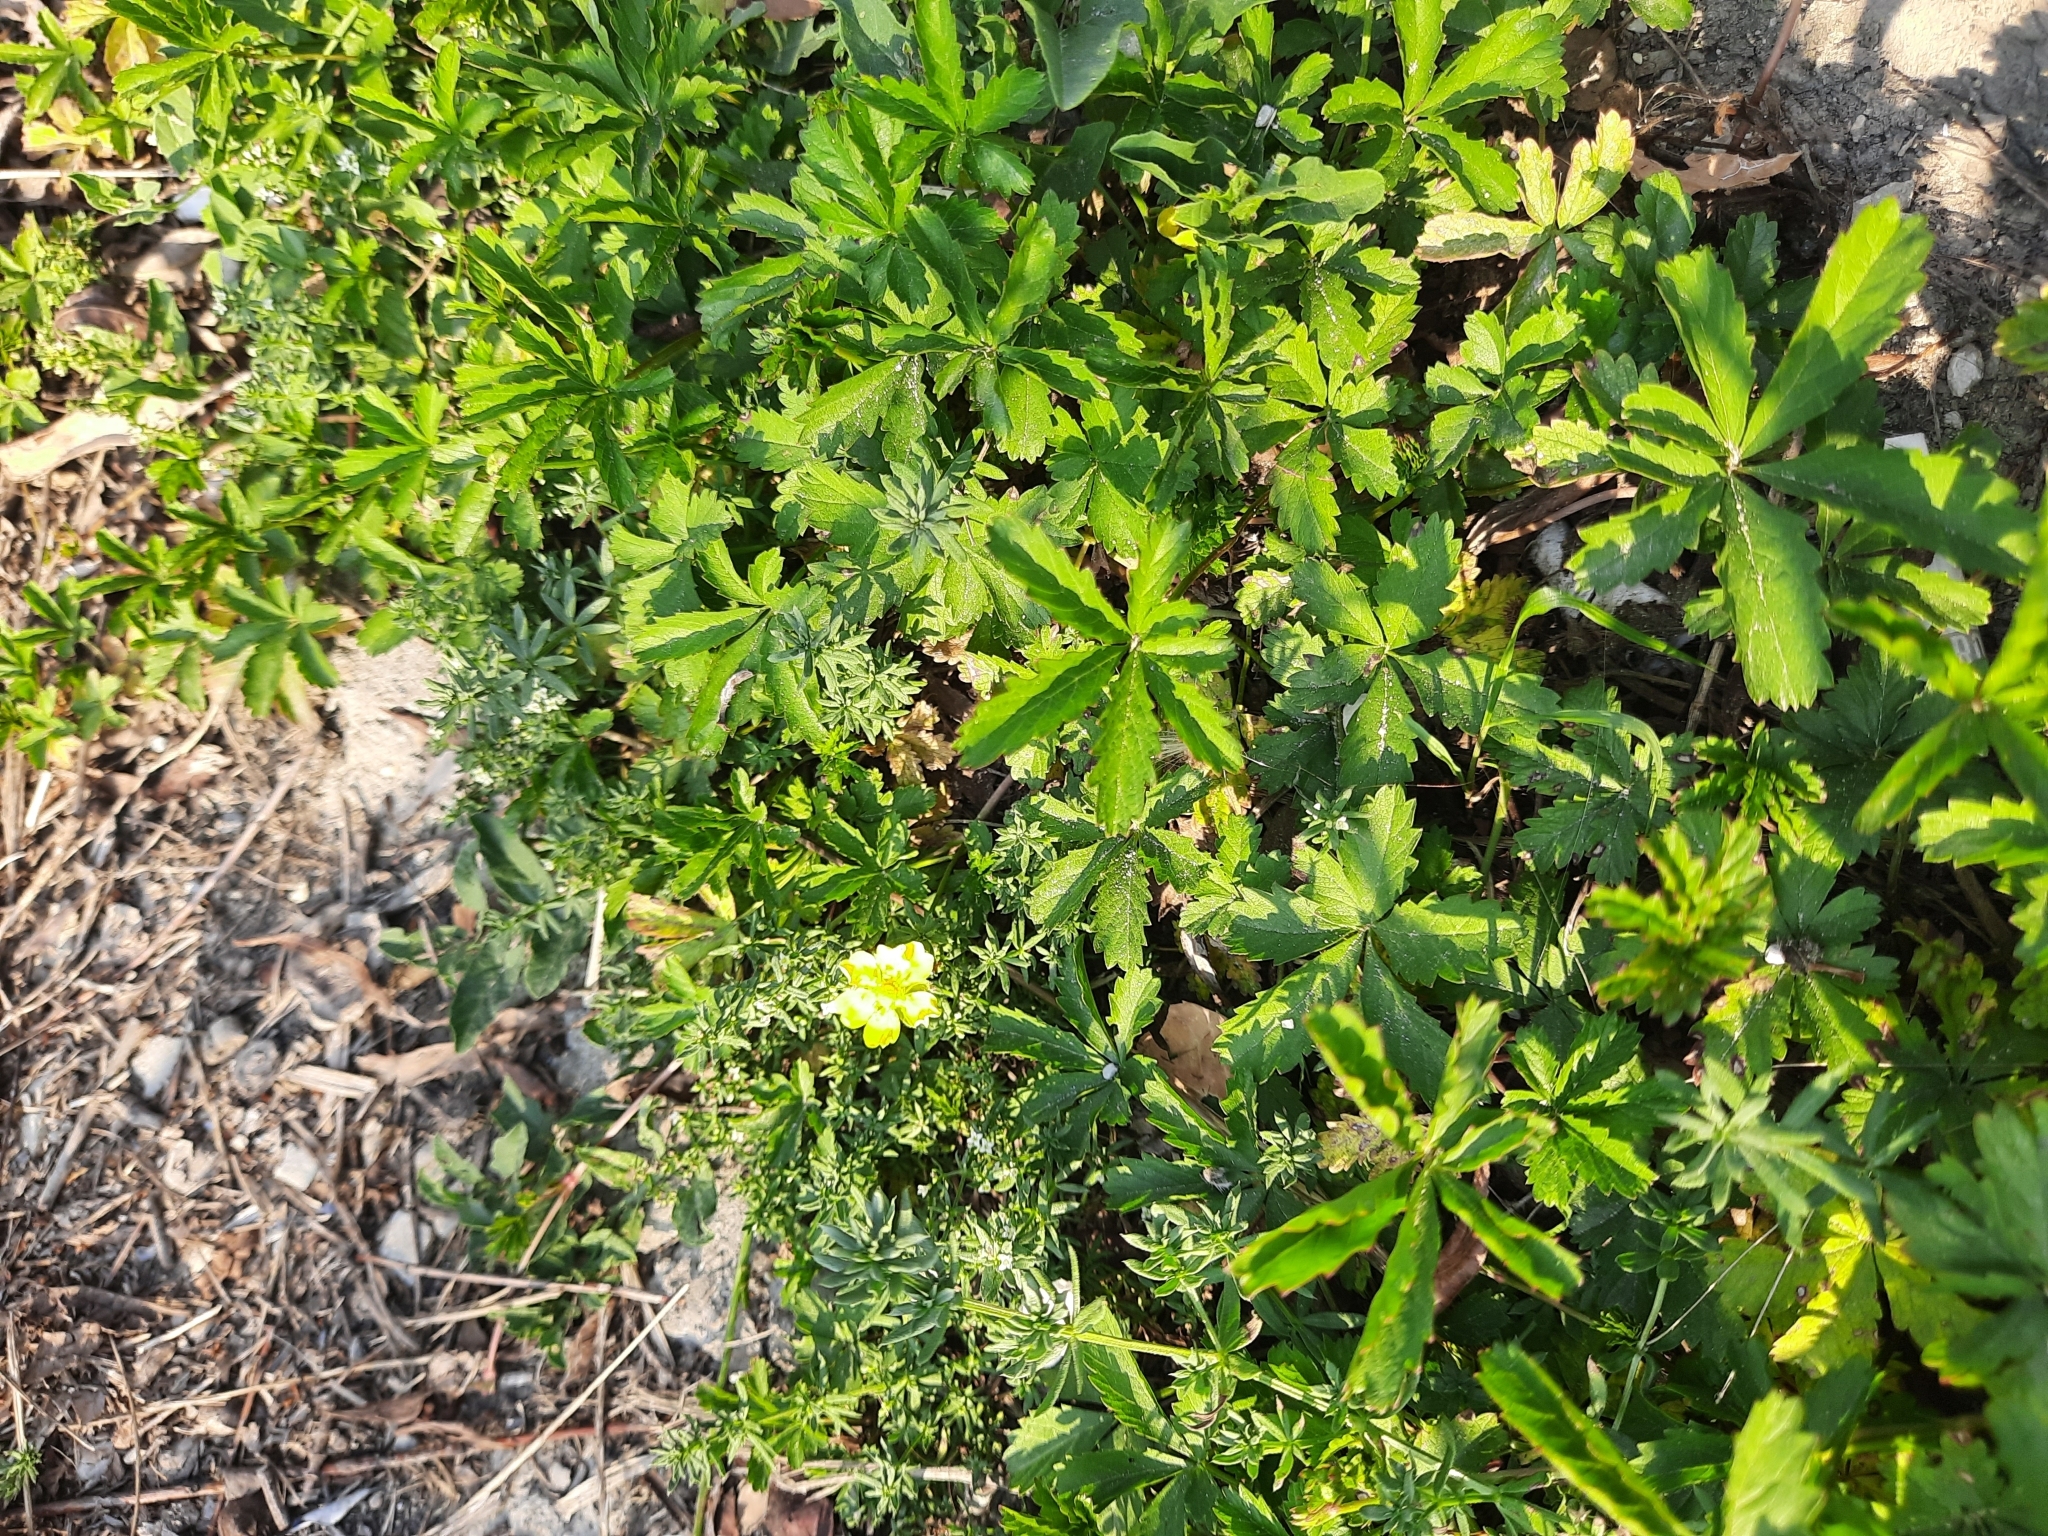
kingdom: Plantae
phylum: Tracheophyta
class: Magnoliopsida
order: Rosales
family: Rosaceae
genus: Potentilla
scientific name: Potentilla reptans
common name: Creeping cinquefoil
